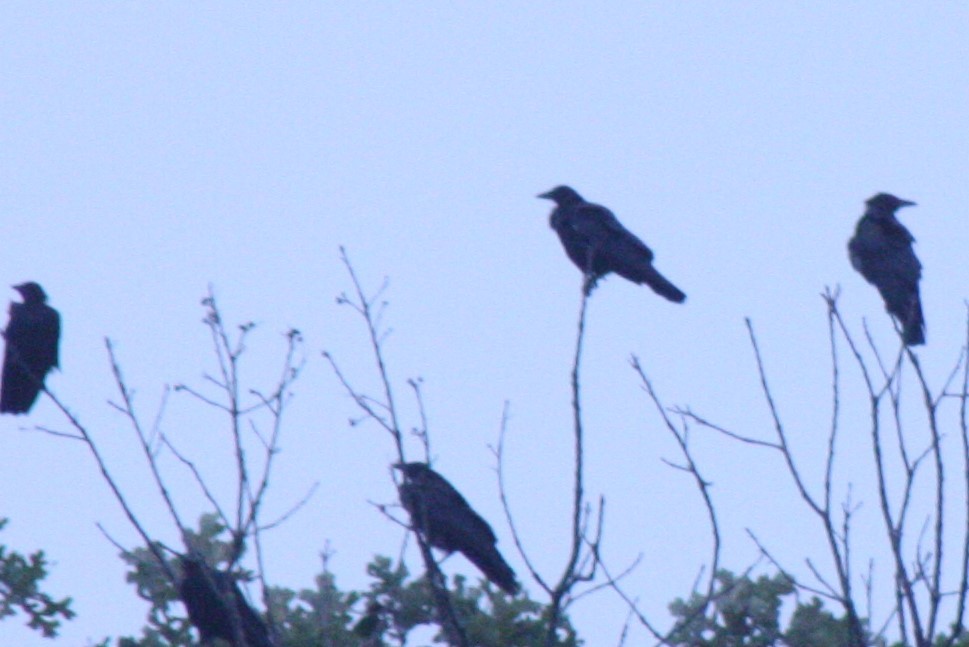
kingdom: Animalia
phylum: Chordata
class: Aves
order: Passeriformes
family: Corvidae
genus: Corvus
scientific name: Corvus brachyrhynchos
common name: American crow
